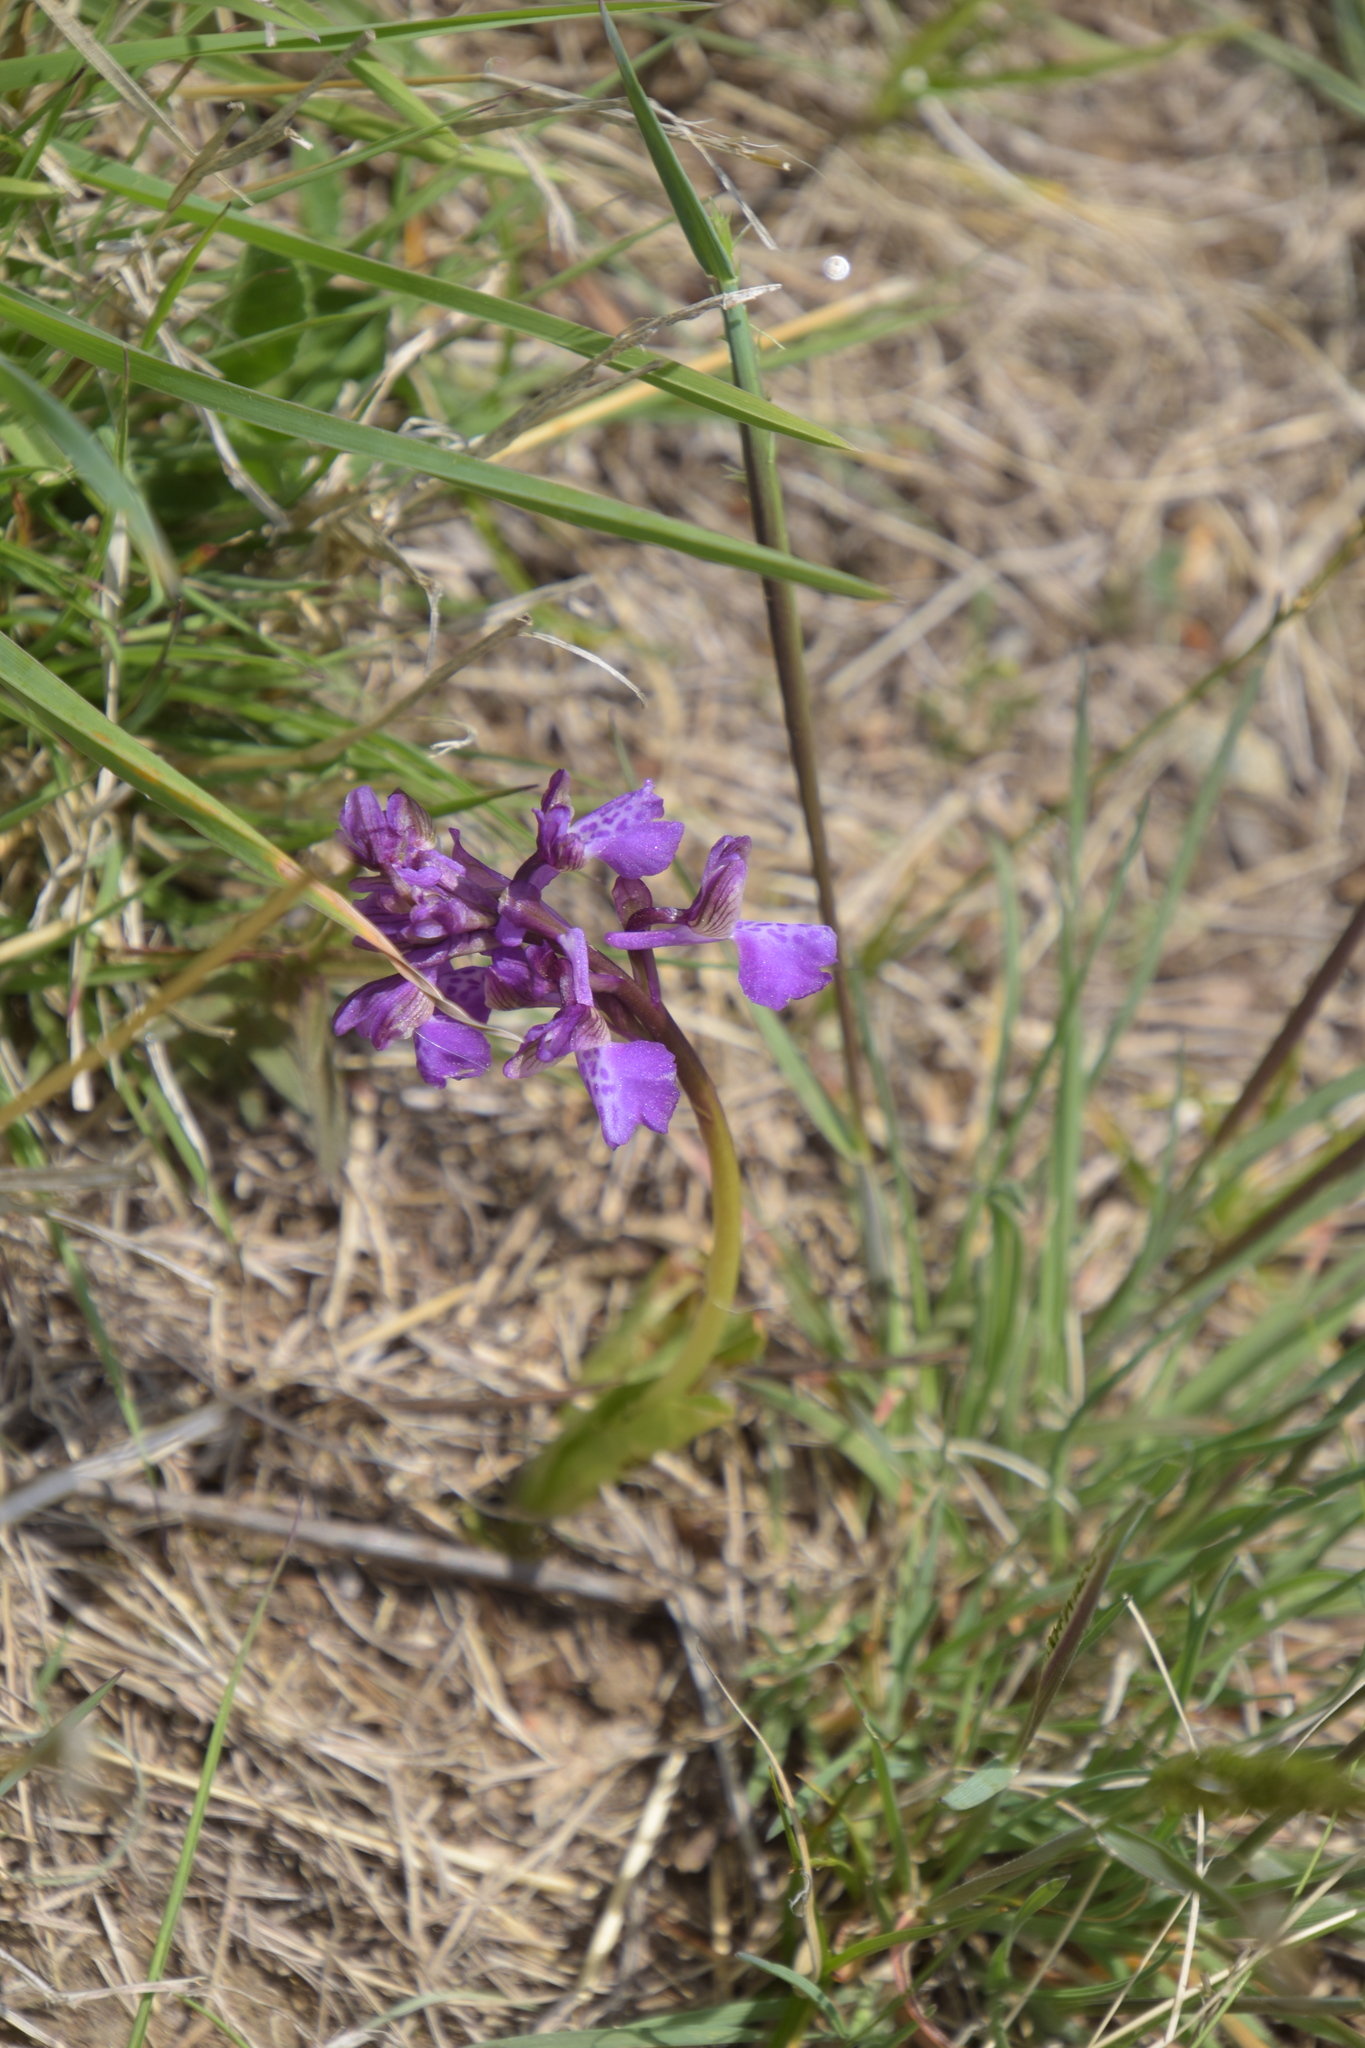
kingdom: Plantae
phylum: Tracheophyta
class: Liliopsida
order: Asparagales
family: Orchidaceae
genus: Anacamptis
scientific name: Anacamptis morio
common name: Green-winged orchid
